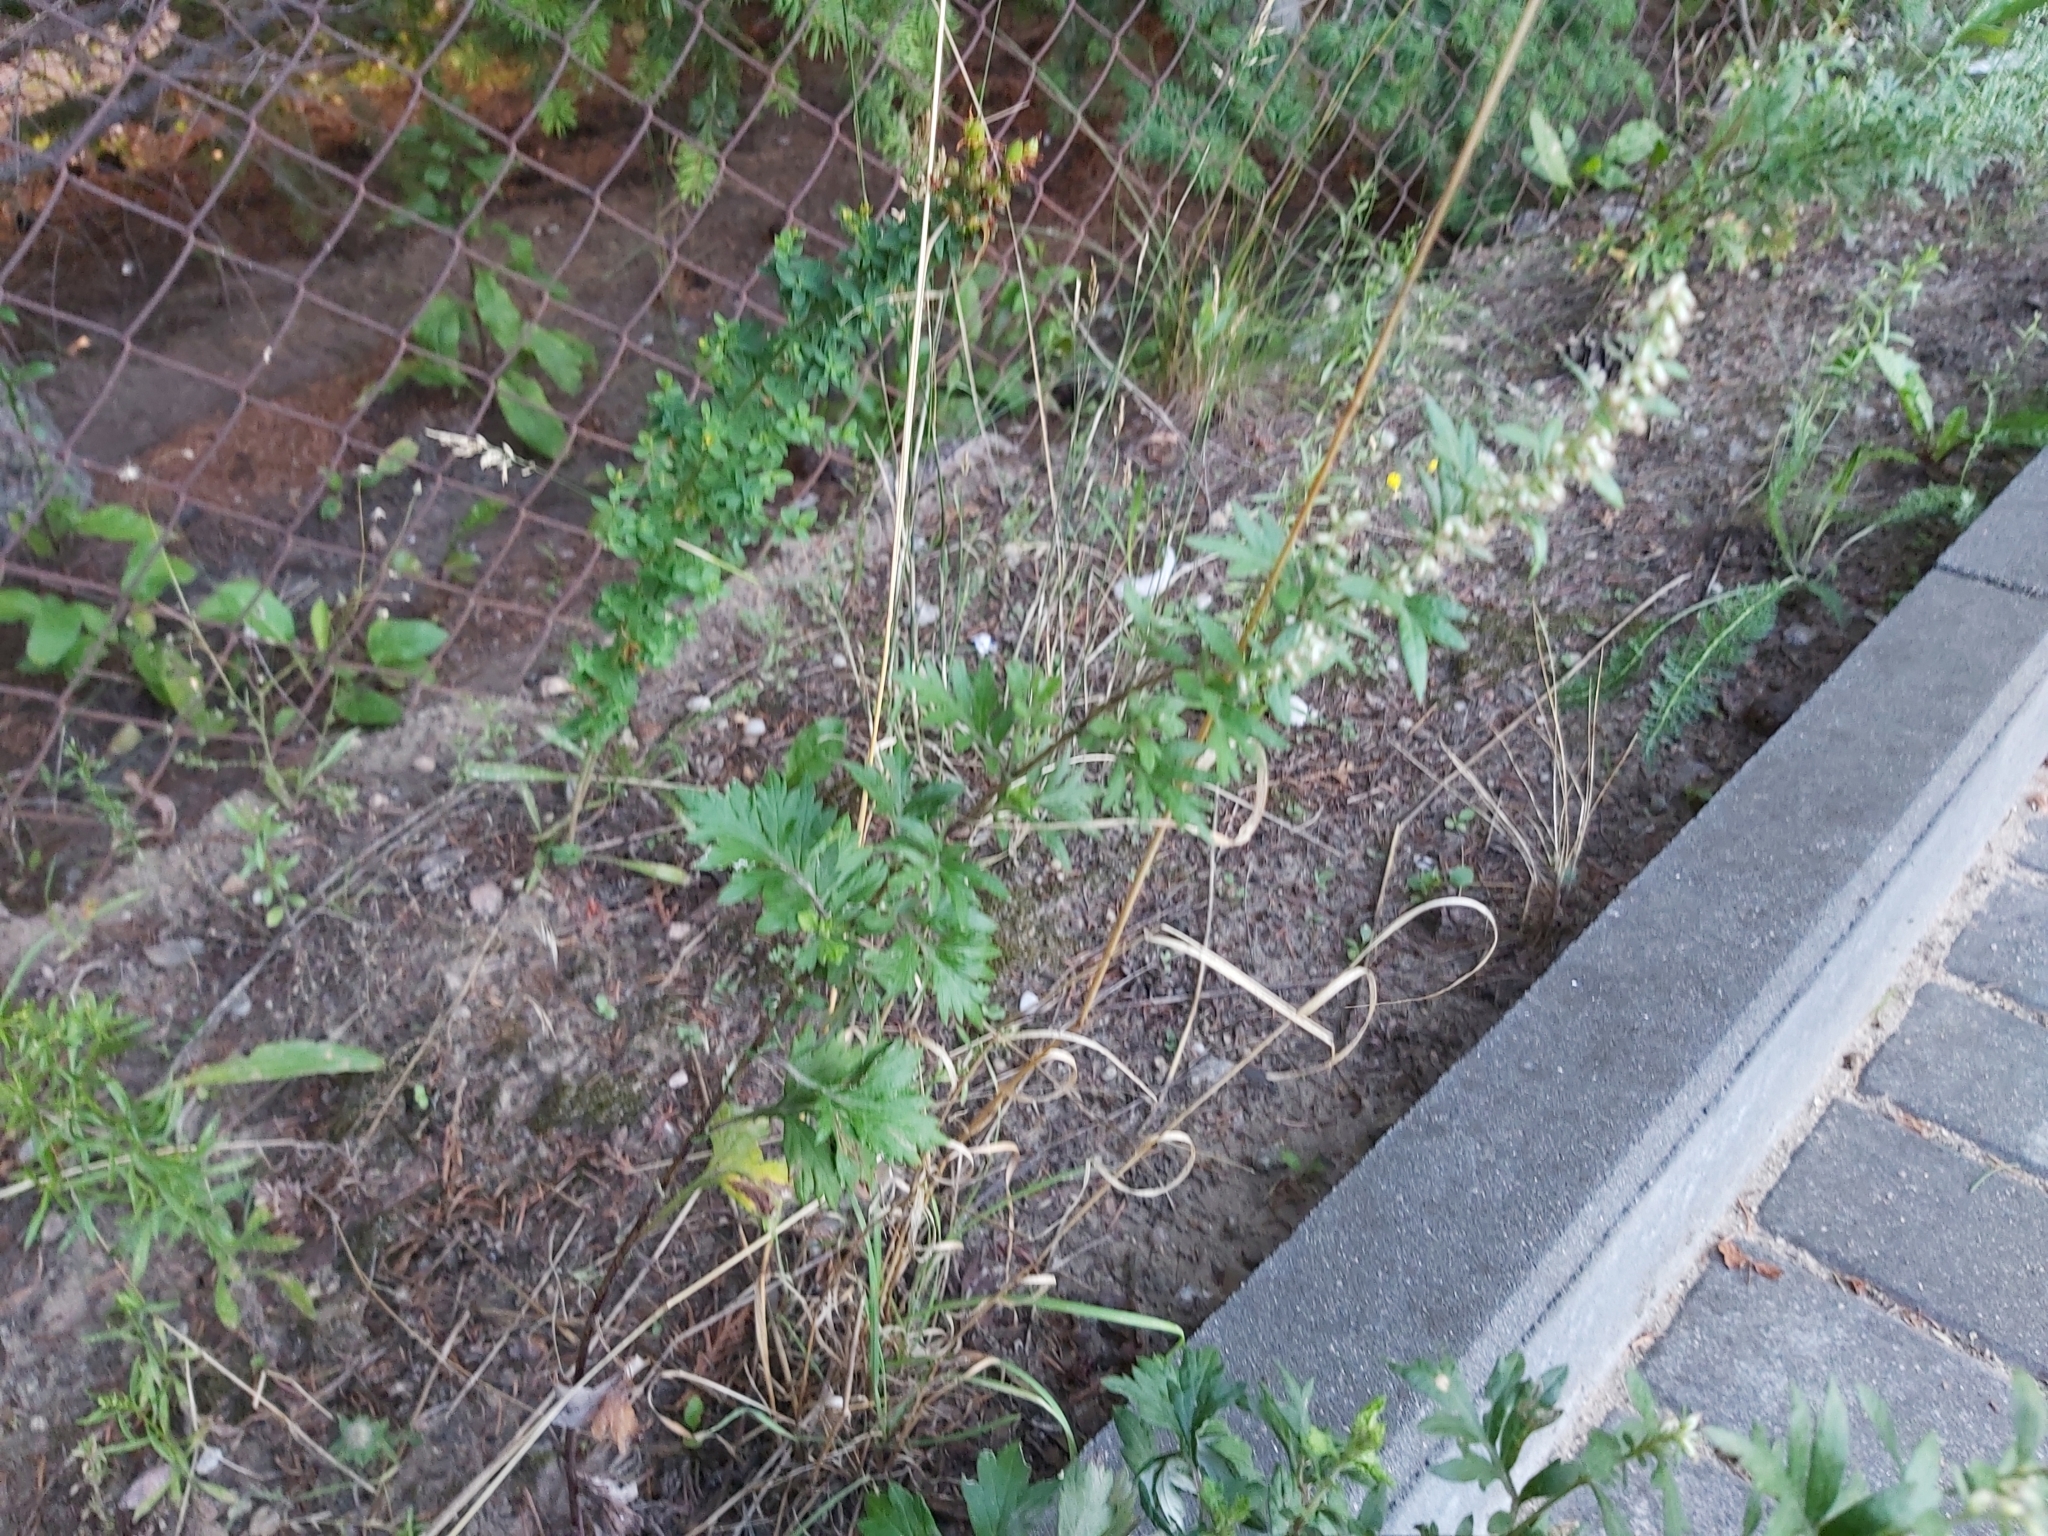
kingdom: Plantae
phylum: Tracheophyta
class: Magnoliopsida
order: Asterales
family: Asteraceae
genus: Artemisia
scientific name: Artemisia vulgaris
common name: Mugwort
